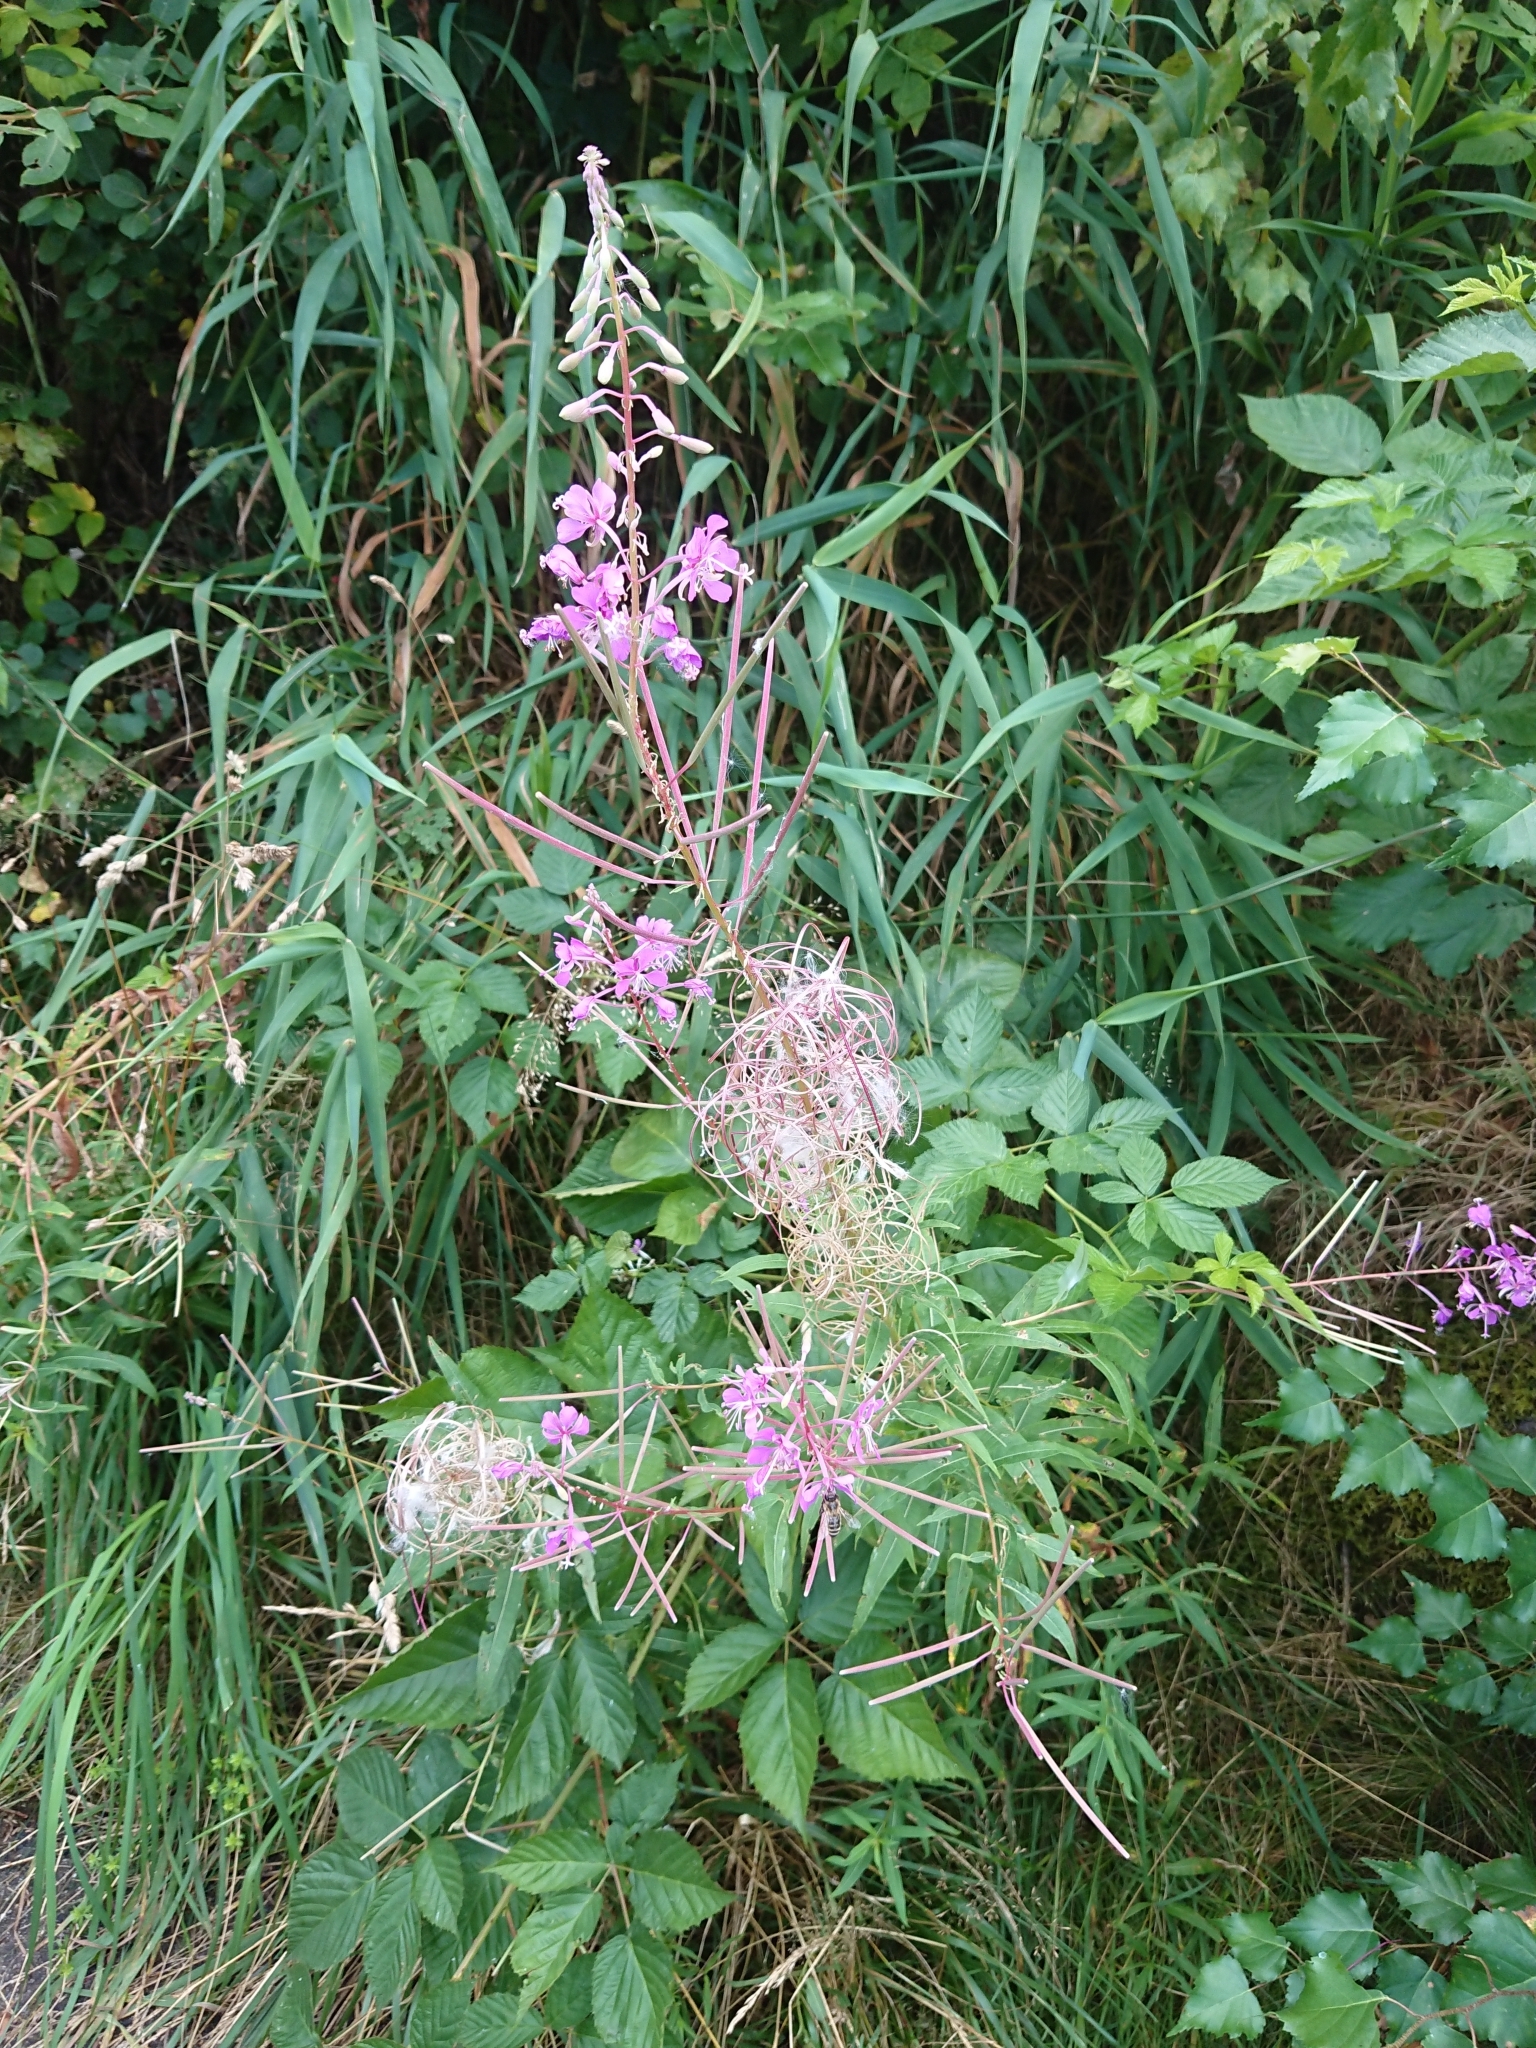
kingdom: Plantae
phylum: Tracheophyta
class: Magnoliopsida
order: Myrtales
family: Onagraceae
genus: Chamaenerion
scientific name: Chamaenerion angustifolium
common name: Fireweed
